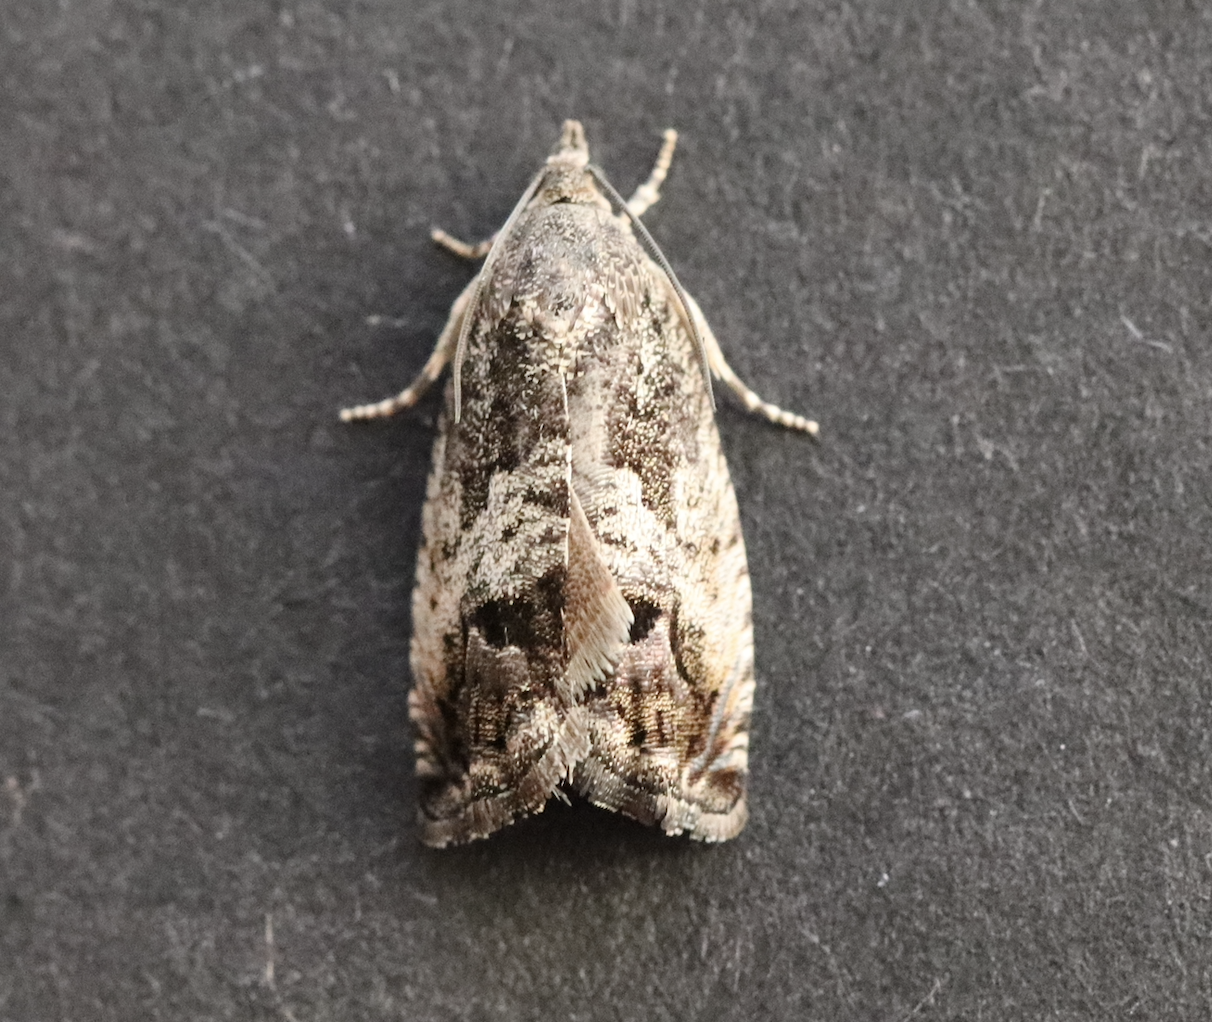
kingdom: Animalia
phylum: Arthropoda
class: Insecta
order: Lepidoptera
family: Tortricidae
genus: Cydia
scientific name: Cydia splendana
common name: De: kastanienwickler, eichenwickler es: oruga de la castaña fr: carpocapse des châtaignes it: cidia o tortrice tardiva delle castagne pt: bichado das castanhas gb: acorn moth, chestnut fruit tortrix
